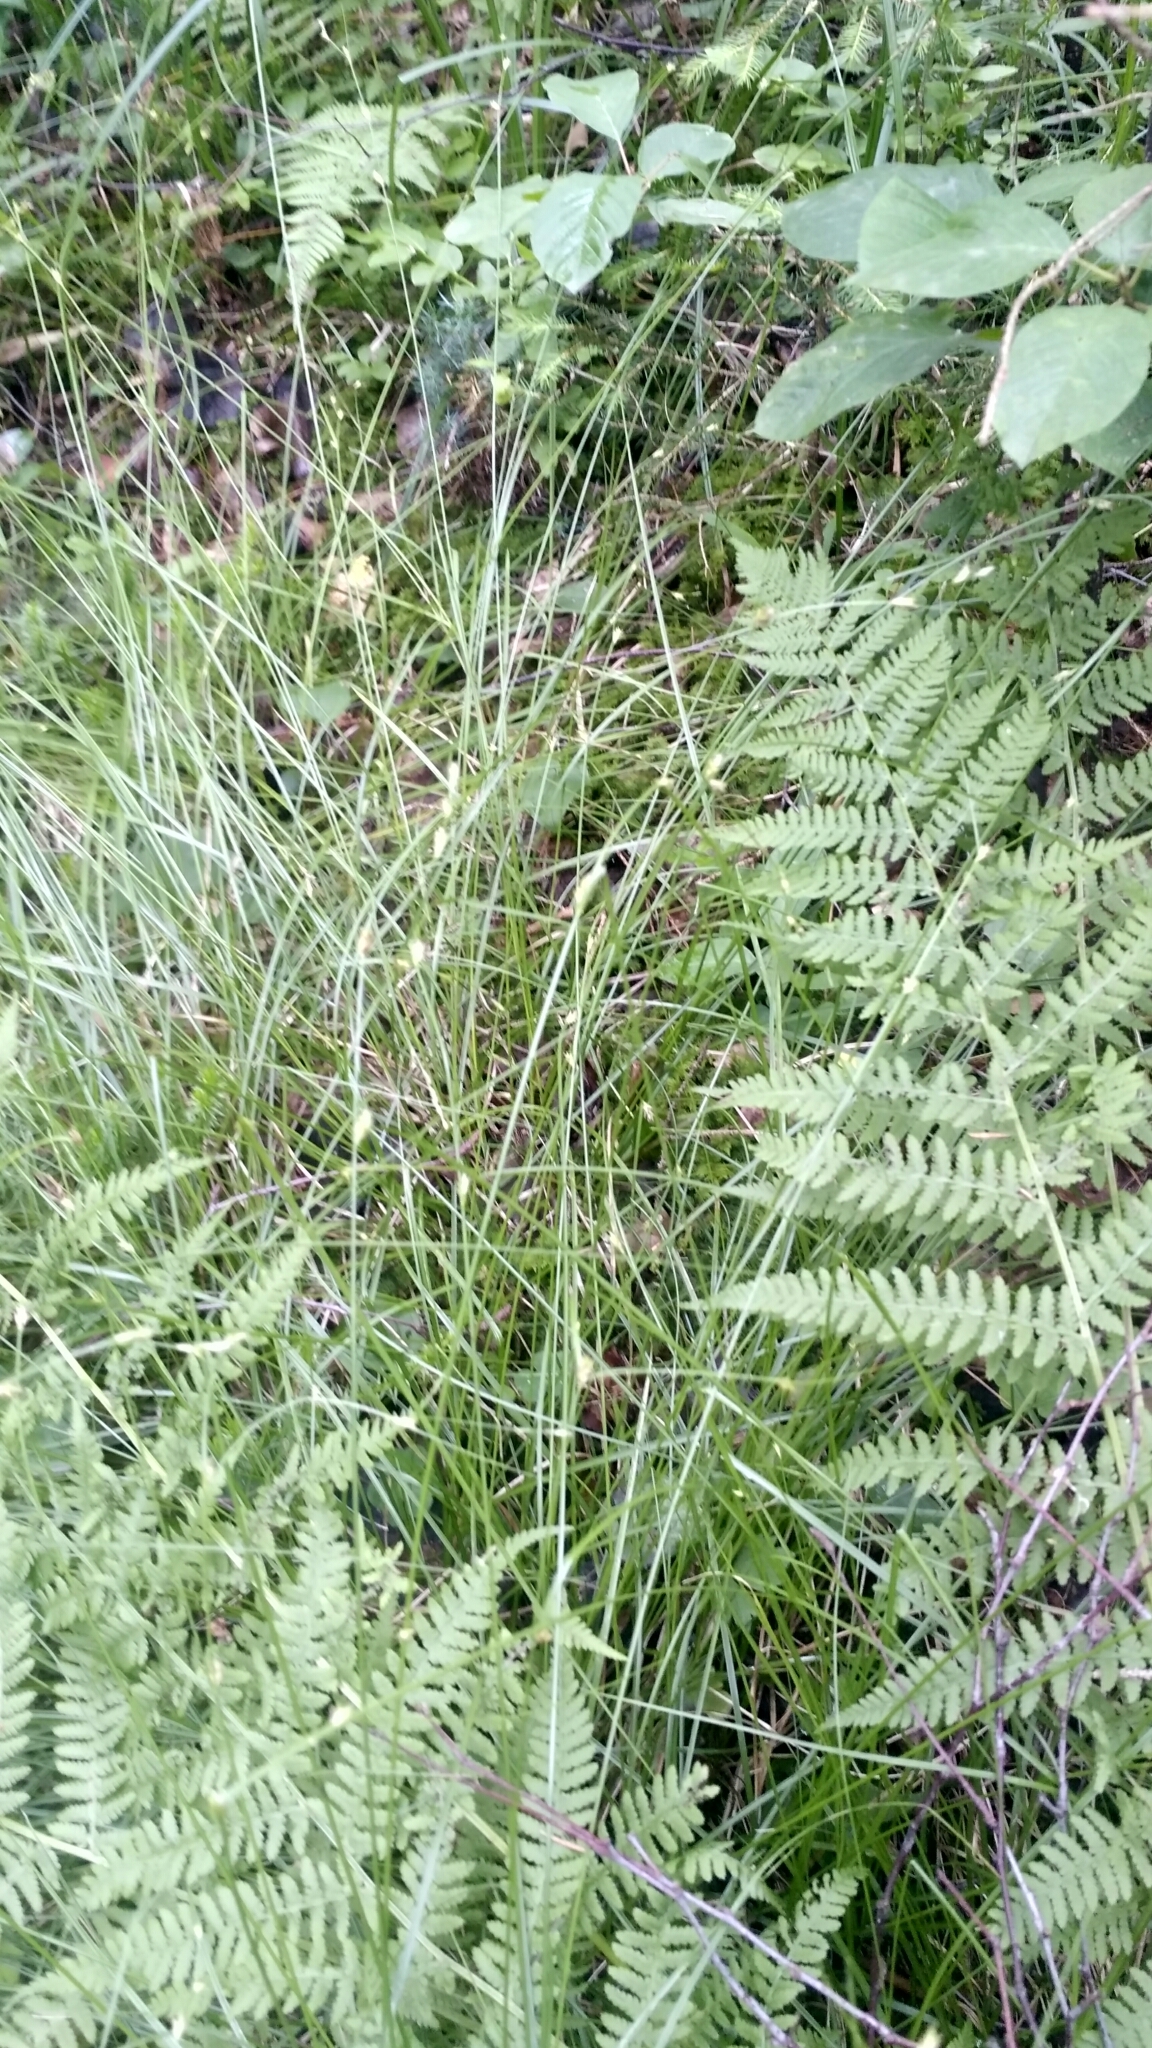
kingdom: Plantae
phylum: Tracheophyta
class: Liliopsida
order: Poales
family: Cyperaceae
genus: Carex
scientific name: Carex remota
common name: Remote sedge
